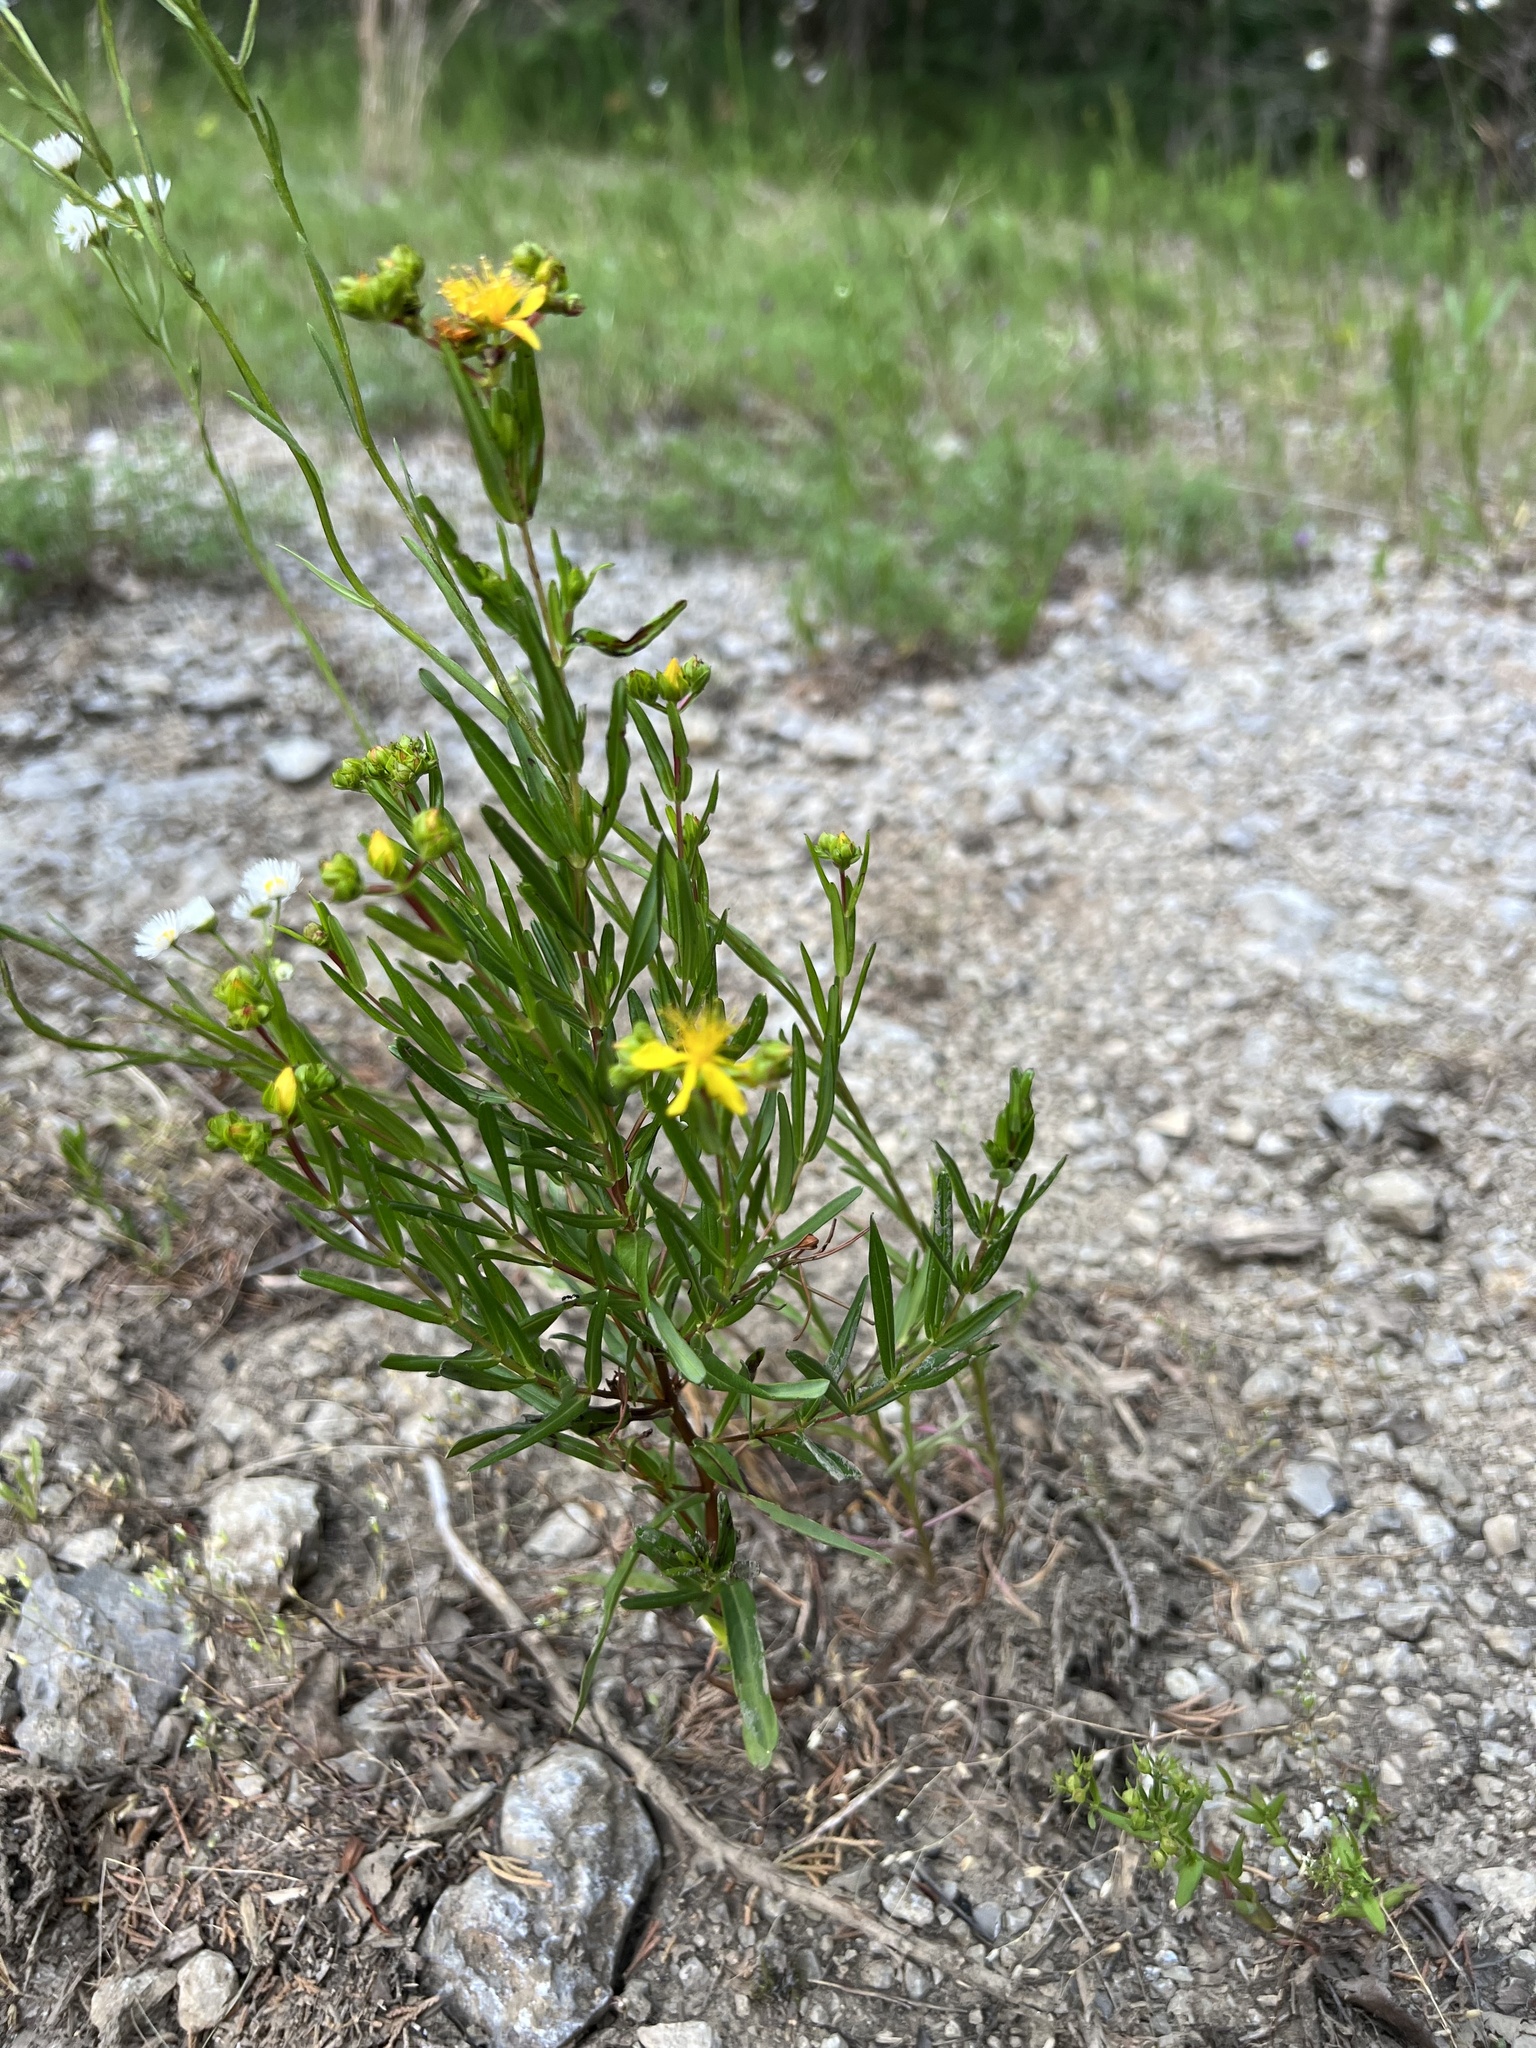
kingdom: Plantae
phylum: Tracheophyta
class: Magnoliopsida
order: Malpighiales
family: Hypericaceae
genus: Hypericum
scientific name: Hypericum sphaerocarpum
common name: Round-fruited st. john's-wort
